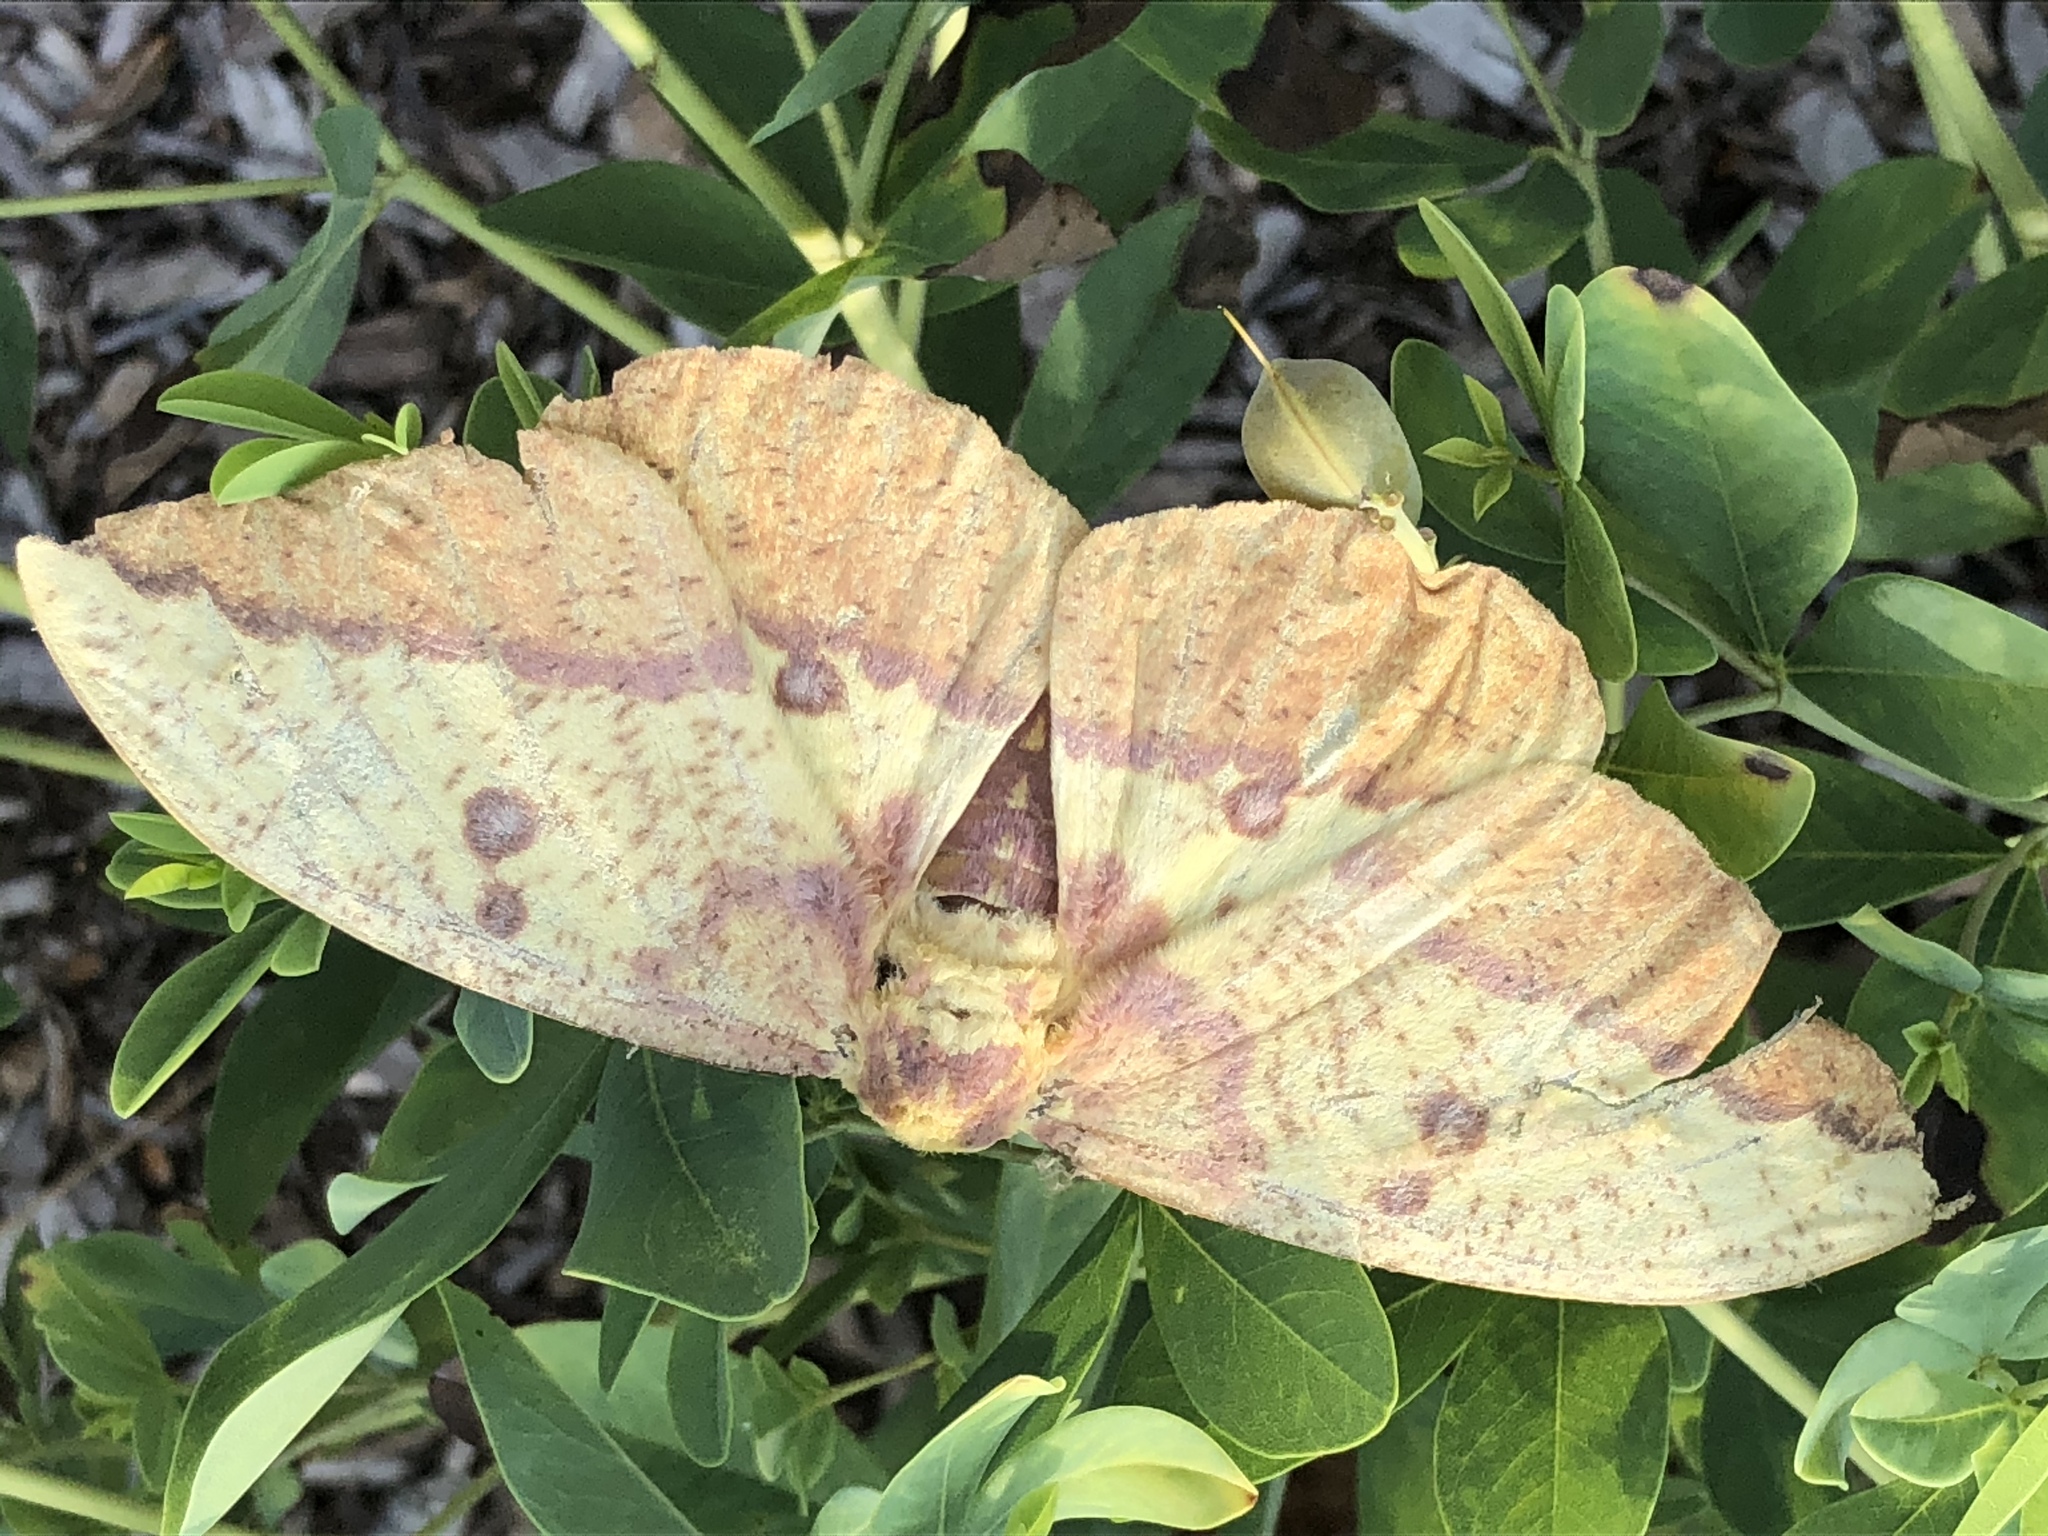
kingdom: Animalia
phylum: Arthropoda
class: Insecta
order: Lepidoptera
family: Saturniidae
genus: Eacles
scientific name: Eacles imperialis
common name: Imperial moth
